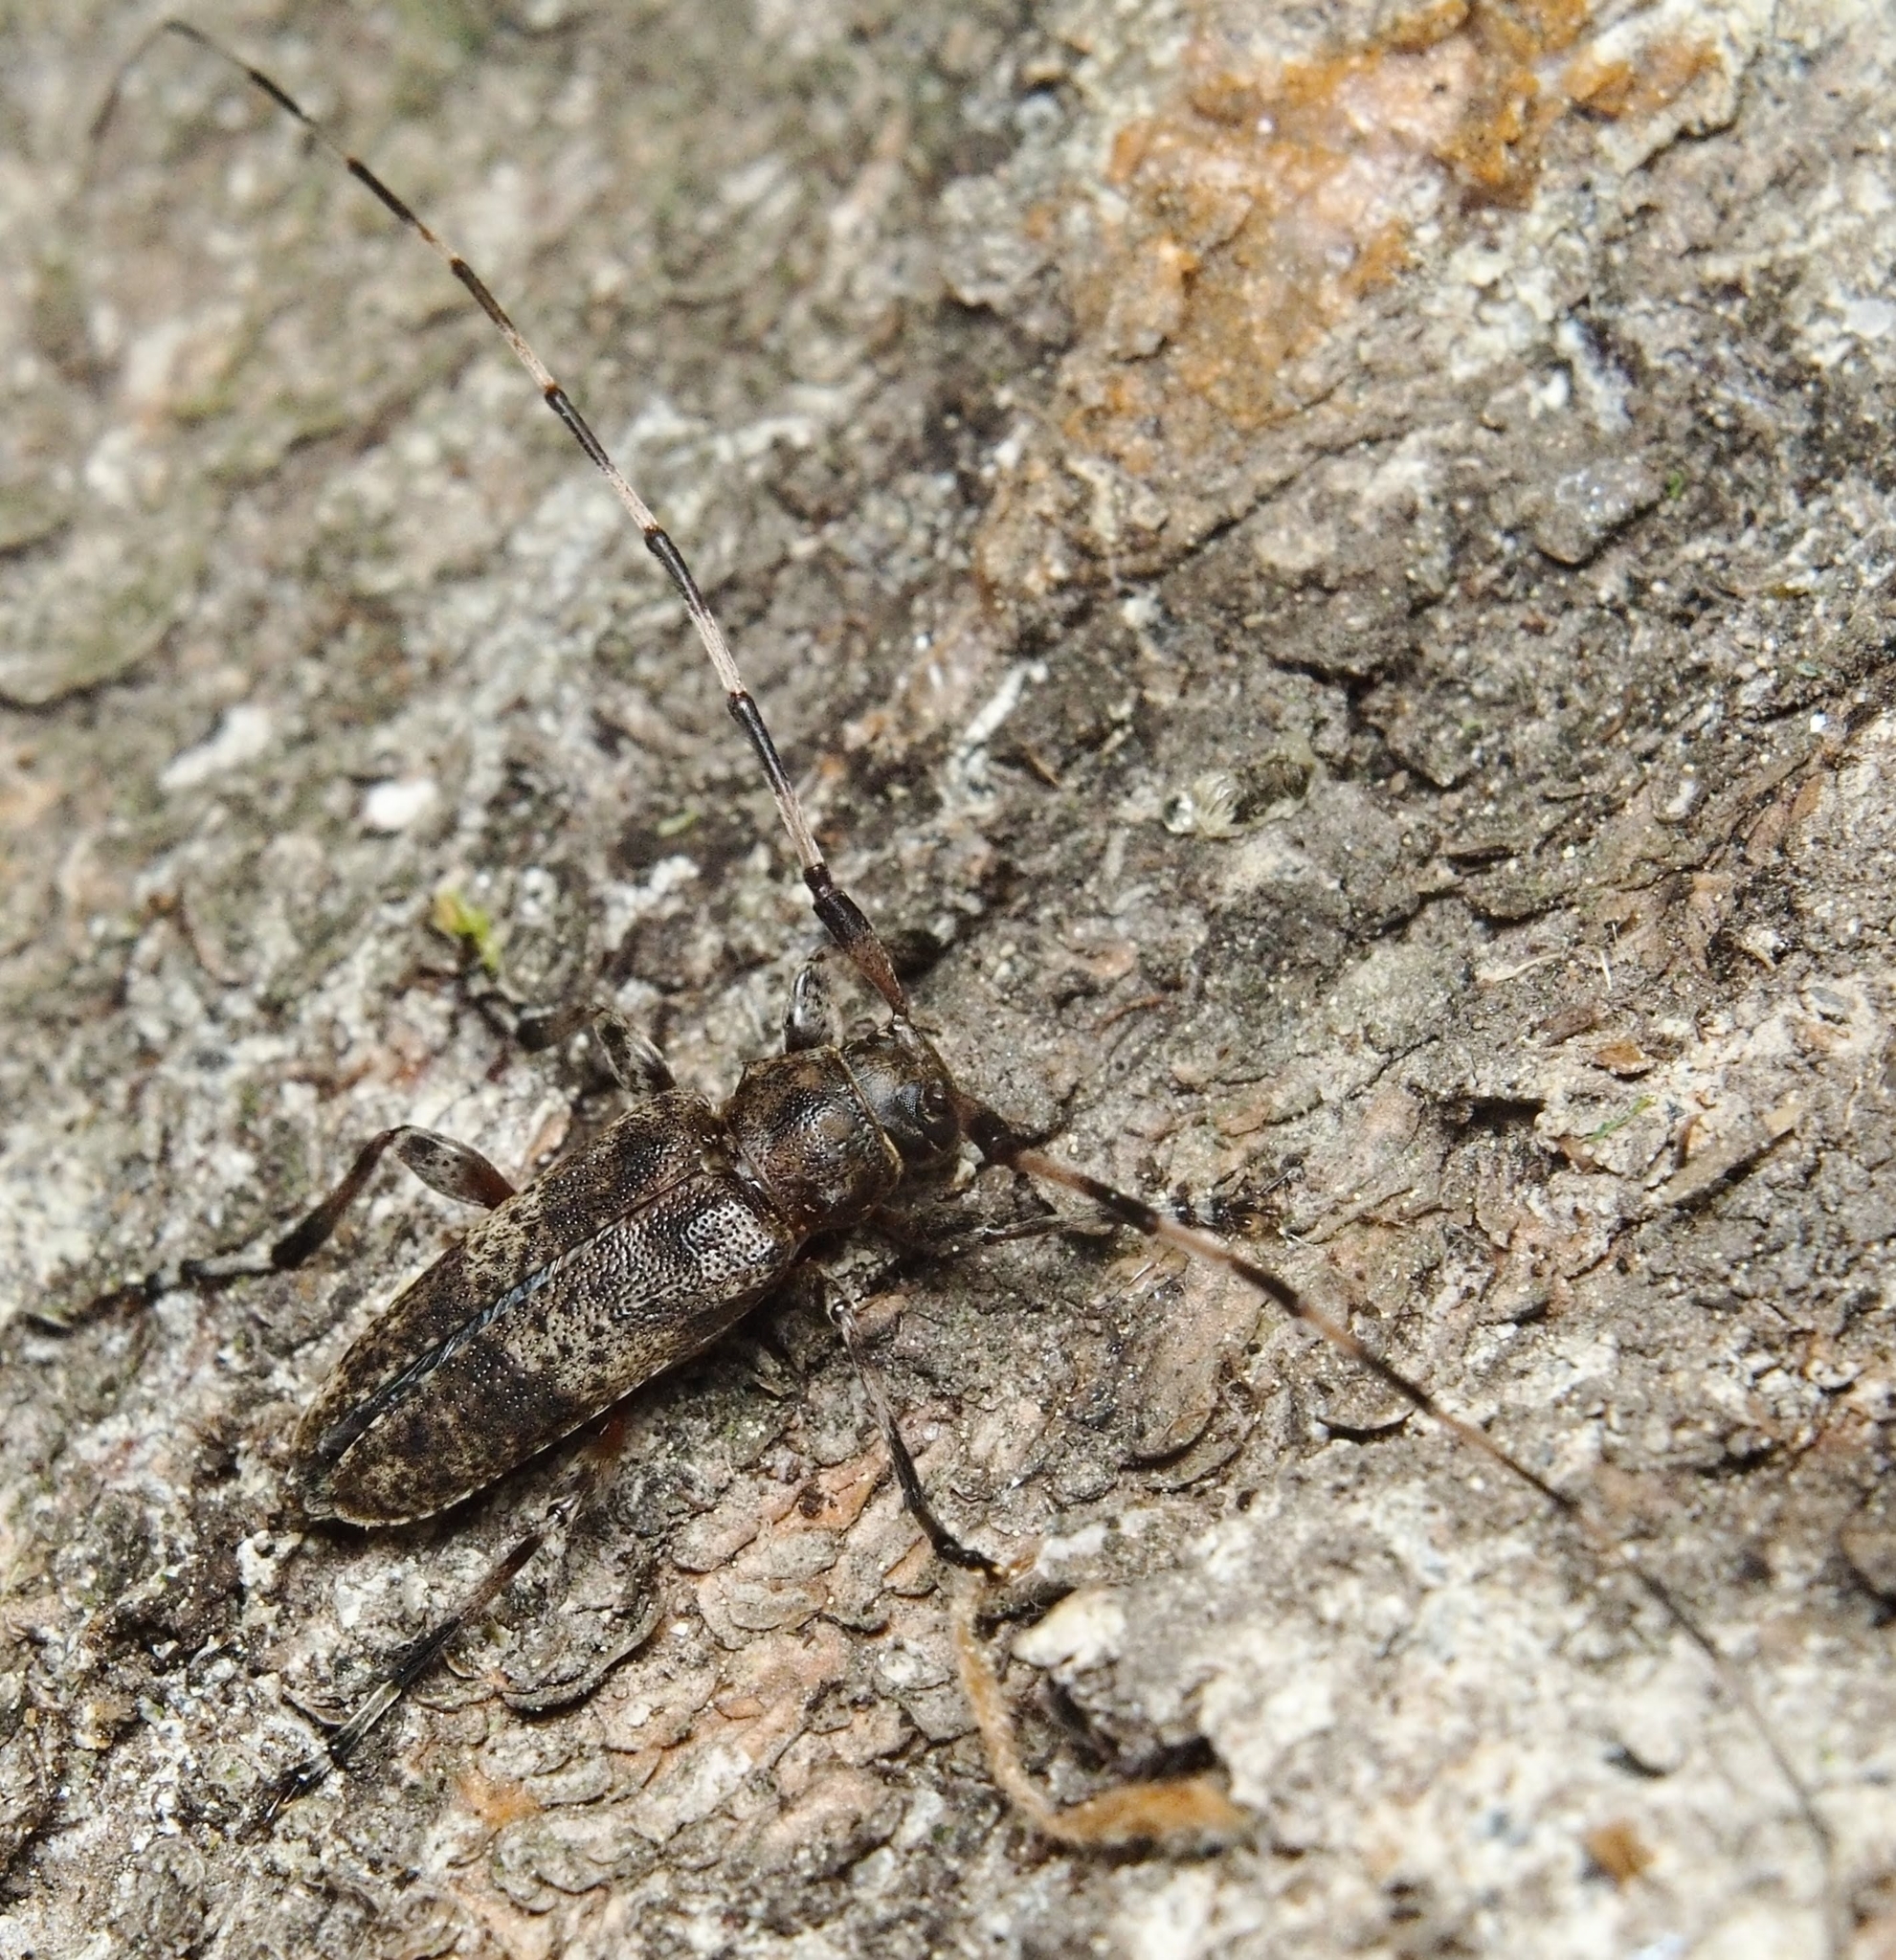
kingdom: Animalia
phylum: Arthropoda
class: Insecta
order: Coleoptera
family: Cerambycidae
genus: Acanthocinus
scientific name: Acanthocinus griseus
